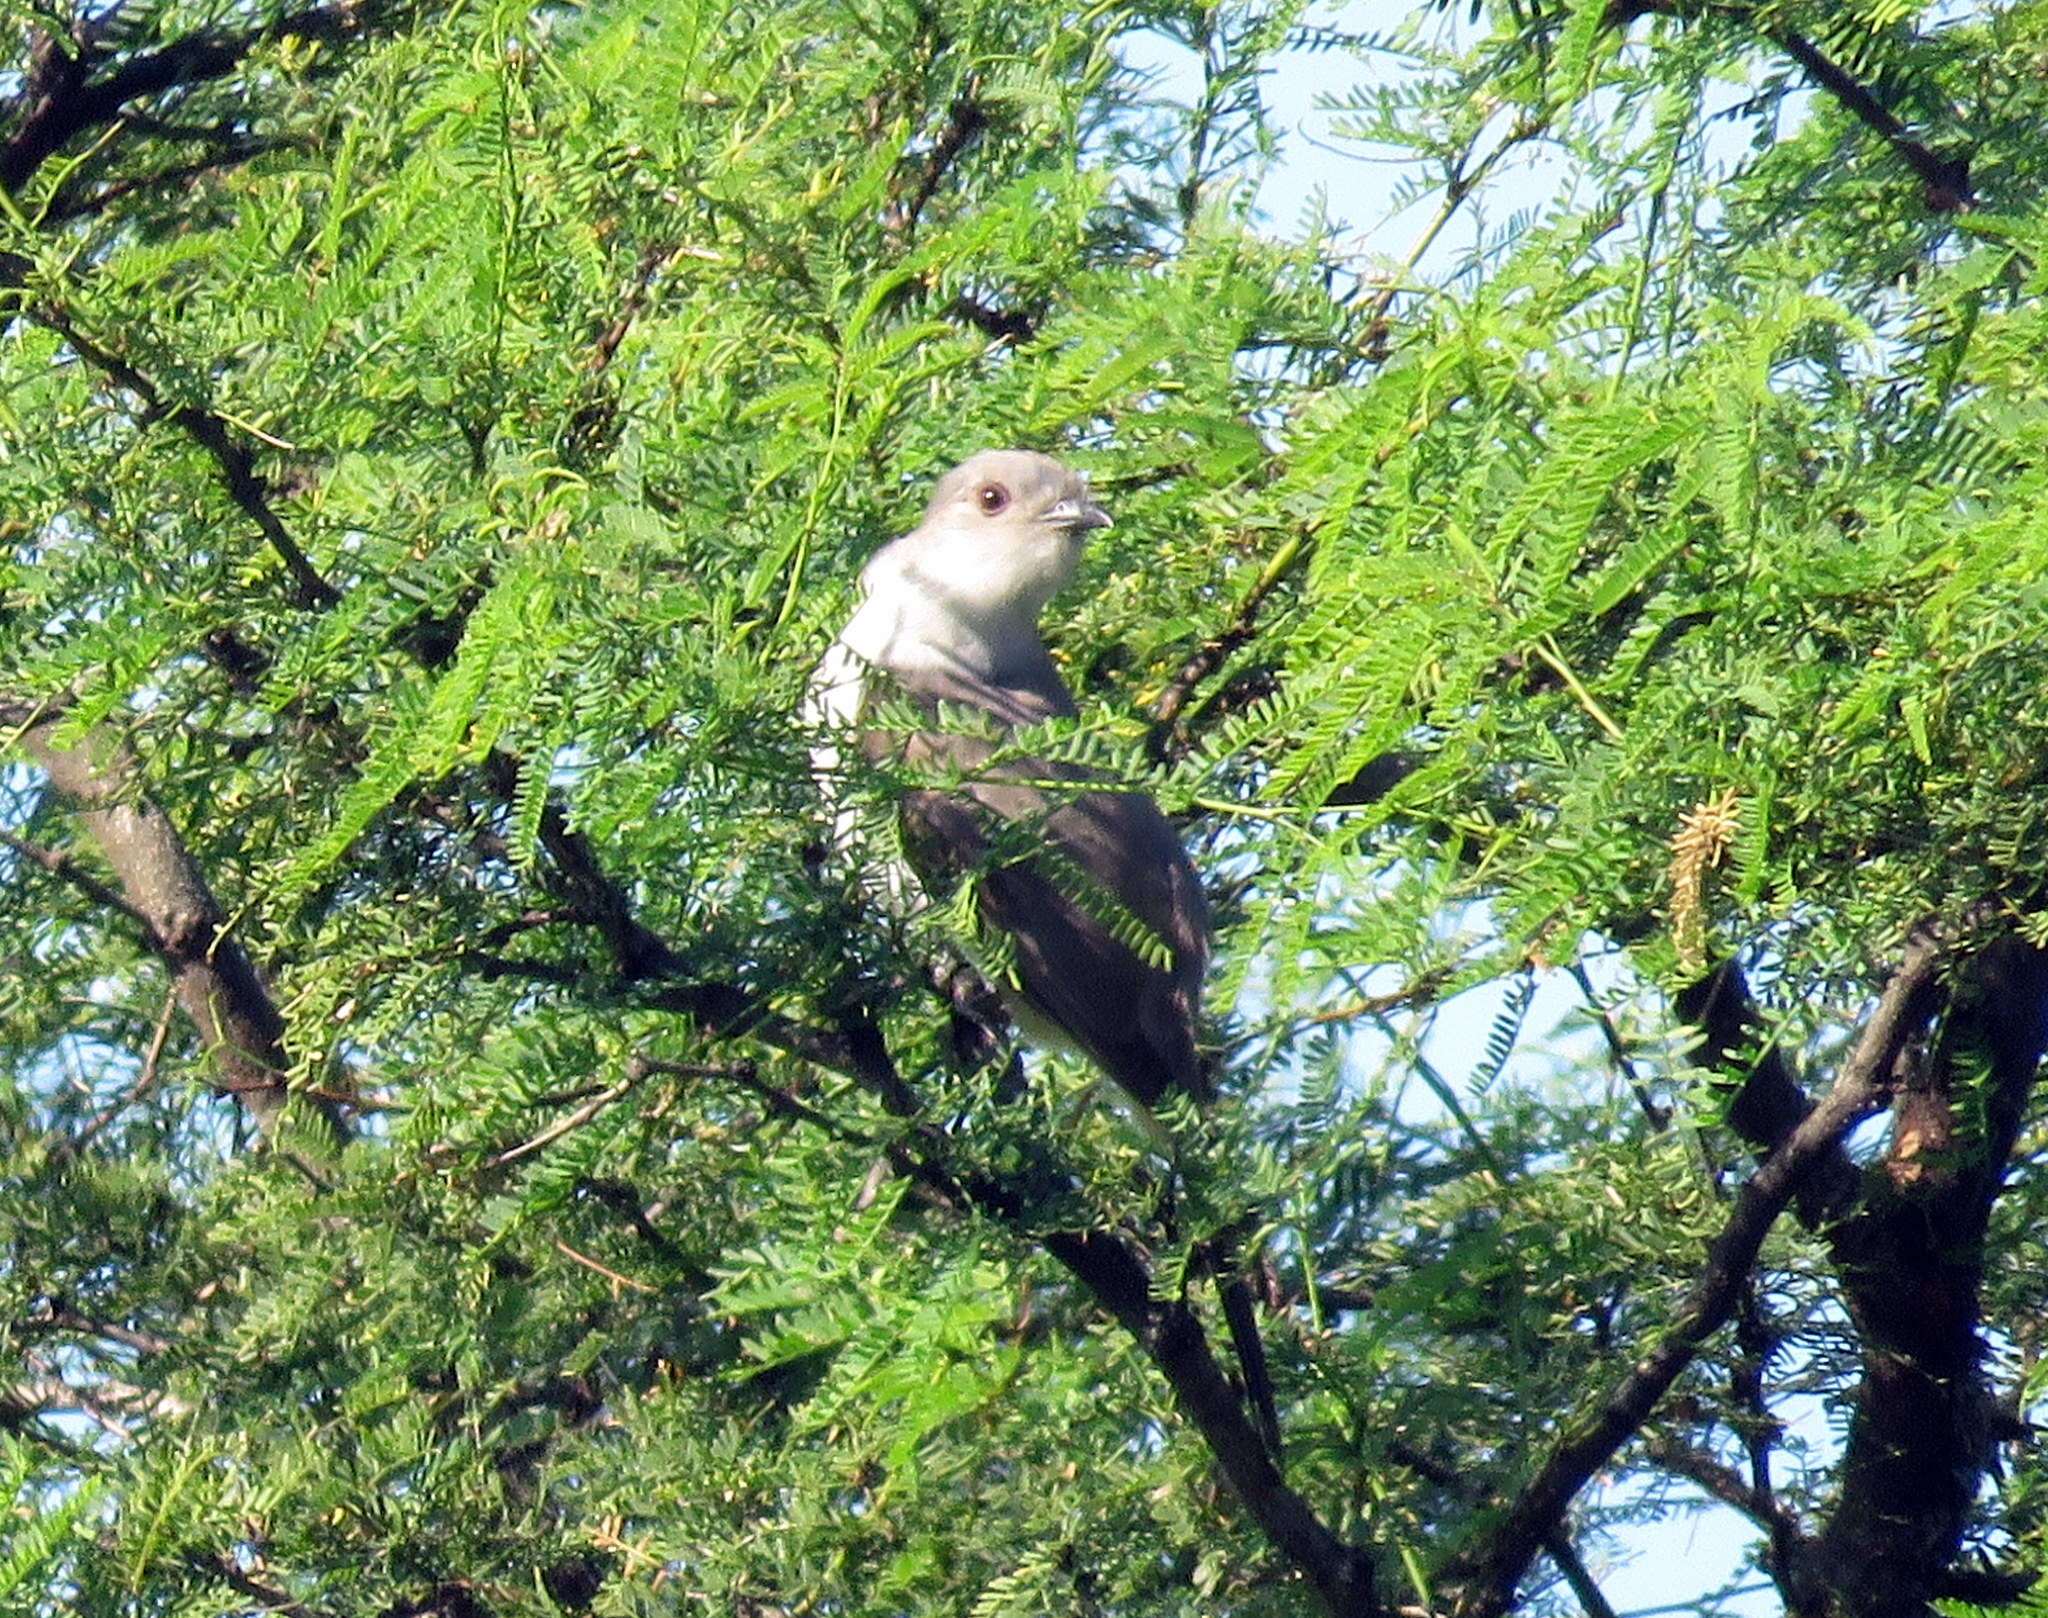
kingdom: Animalia
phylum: Chordata
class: Aves
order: Cuculiformes
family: Cuculidae
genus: Coccyzus
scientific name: Coccyzus cinereus
